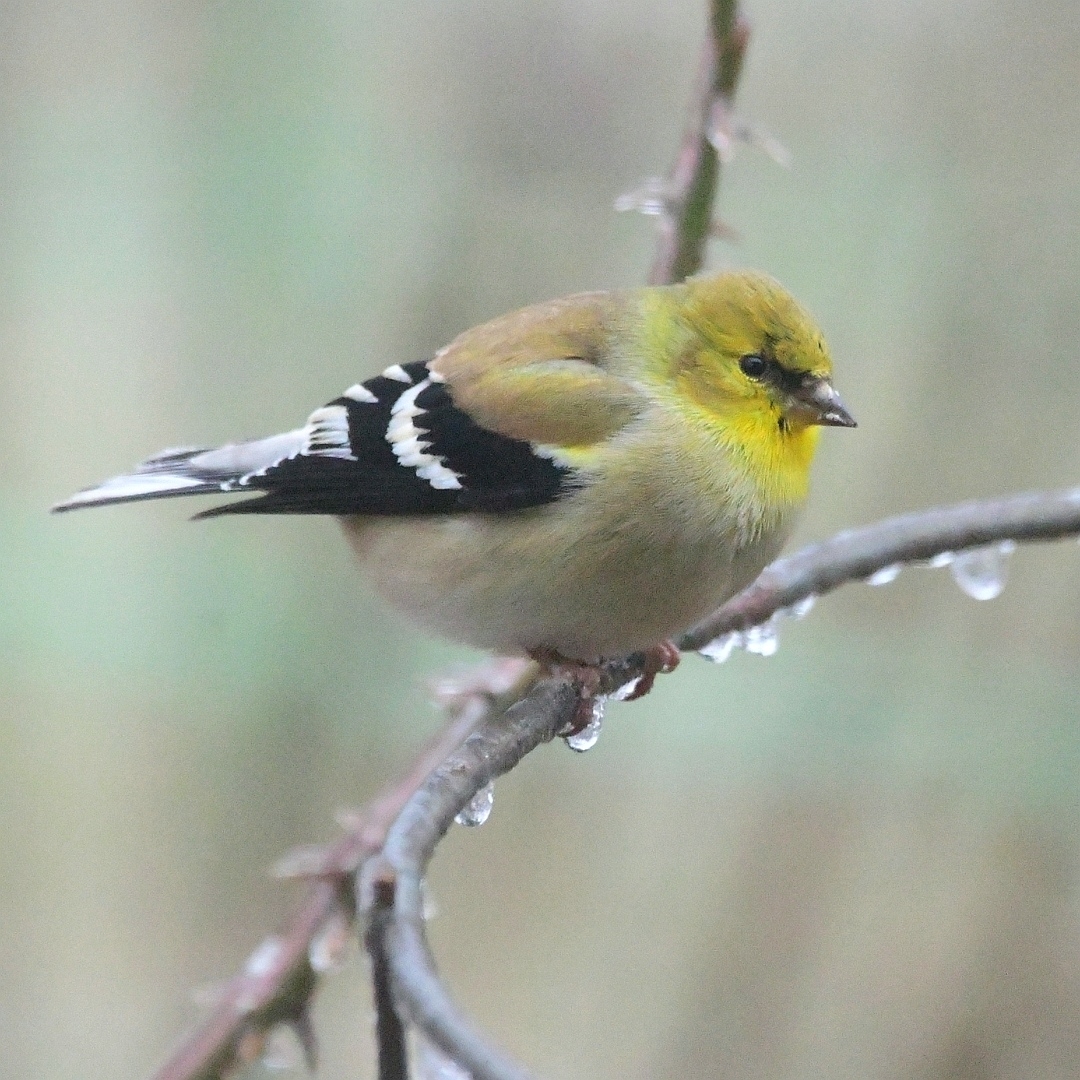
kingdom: Animalia
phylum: Chordata
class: Aves
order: Passeriformes
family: Fringillidae
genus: Spinus
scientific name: Spinus tristis
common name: American goldfinch
